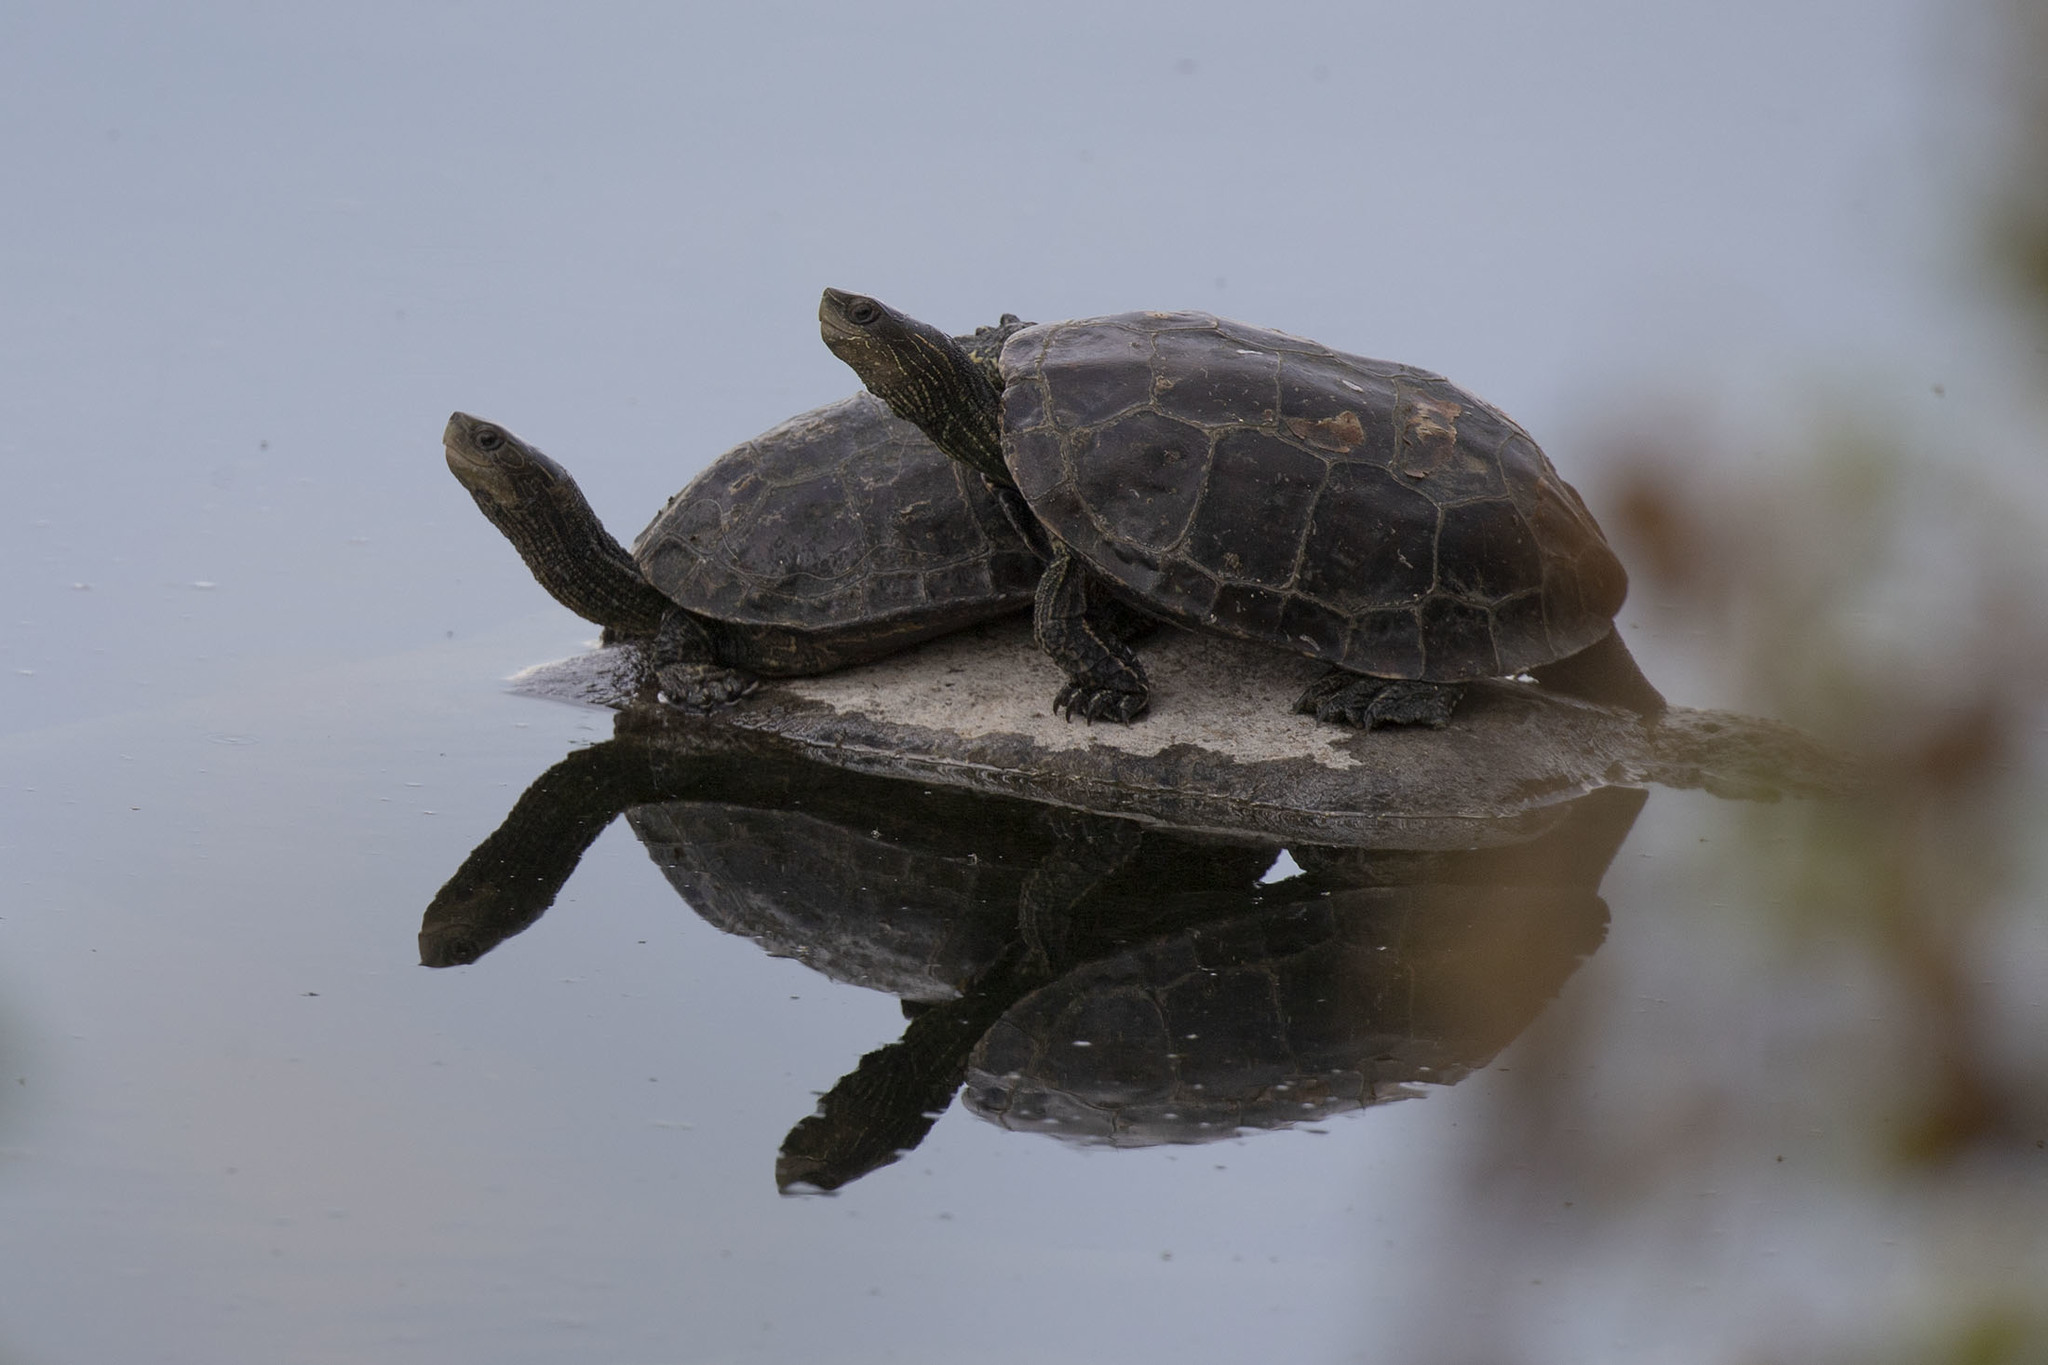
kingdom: Animalia
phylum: Chordata
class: Testudines
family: Geoemydidae
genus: Mauremys
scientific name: Mauremys rivulata
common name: Western caspian turtle
